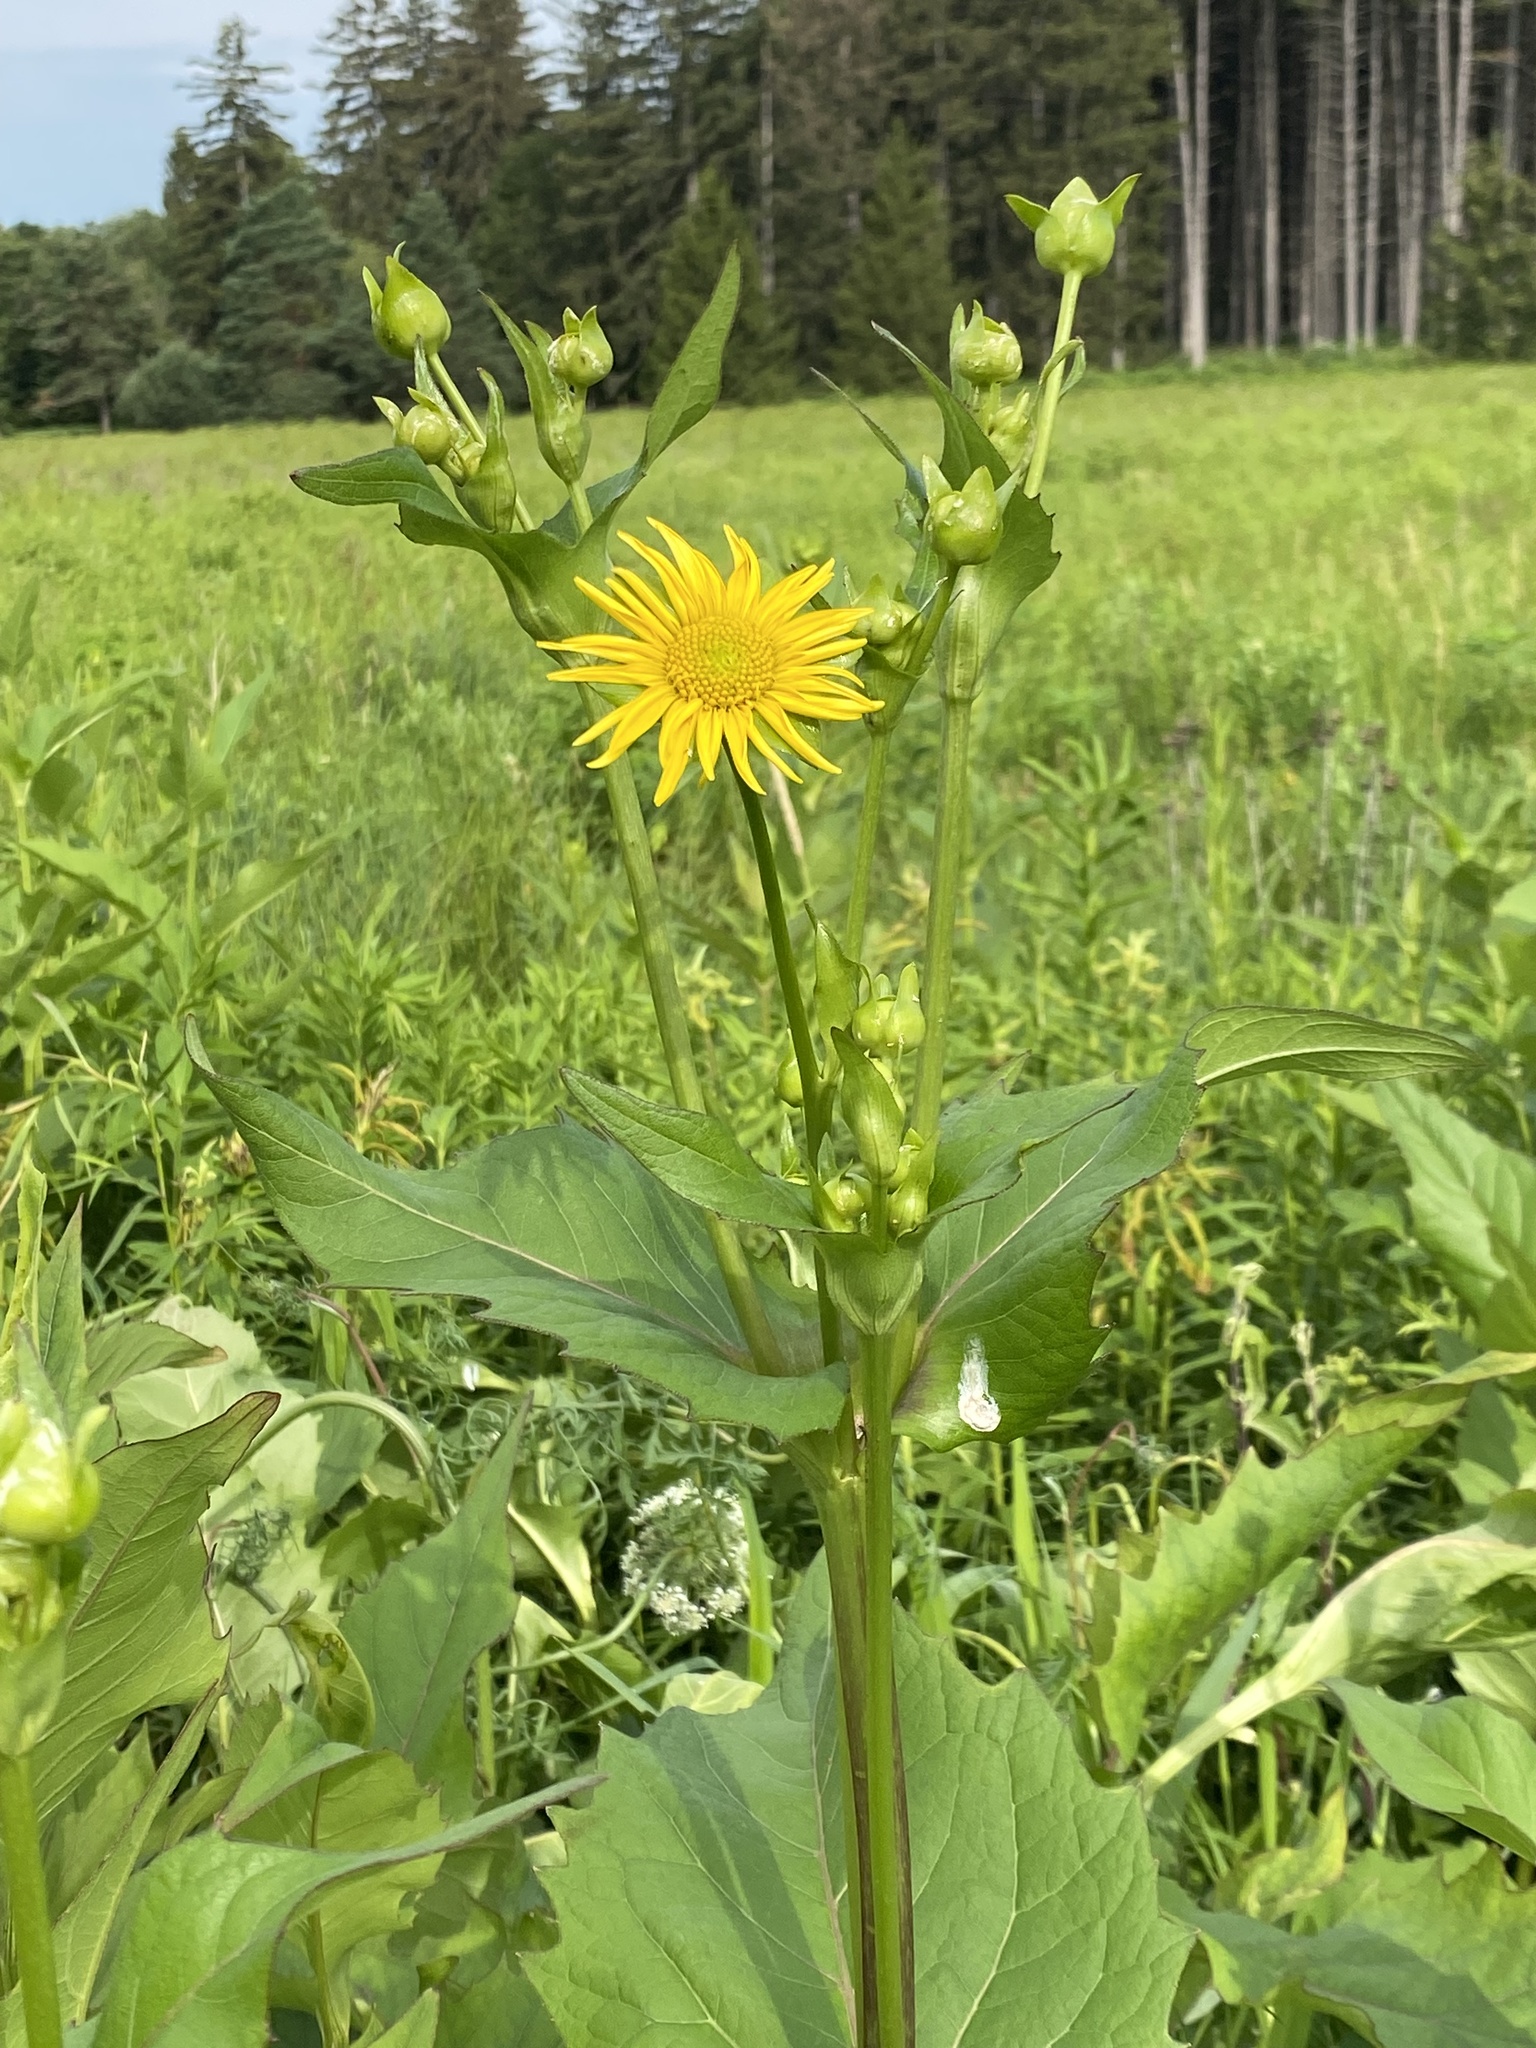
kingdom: Plantae
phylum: Tracheophyta
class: Magnoliopsida
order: Asterales
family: Asteraceae
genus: Silphium
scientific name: Silphium perfoliatum
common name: Cup-plant
